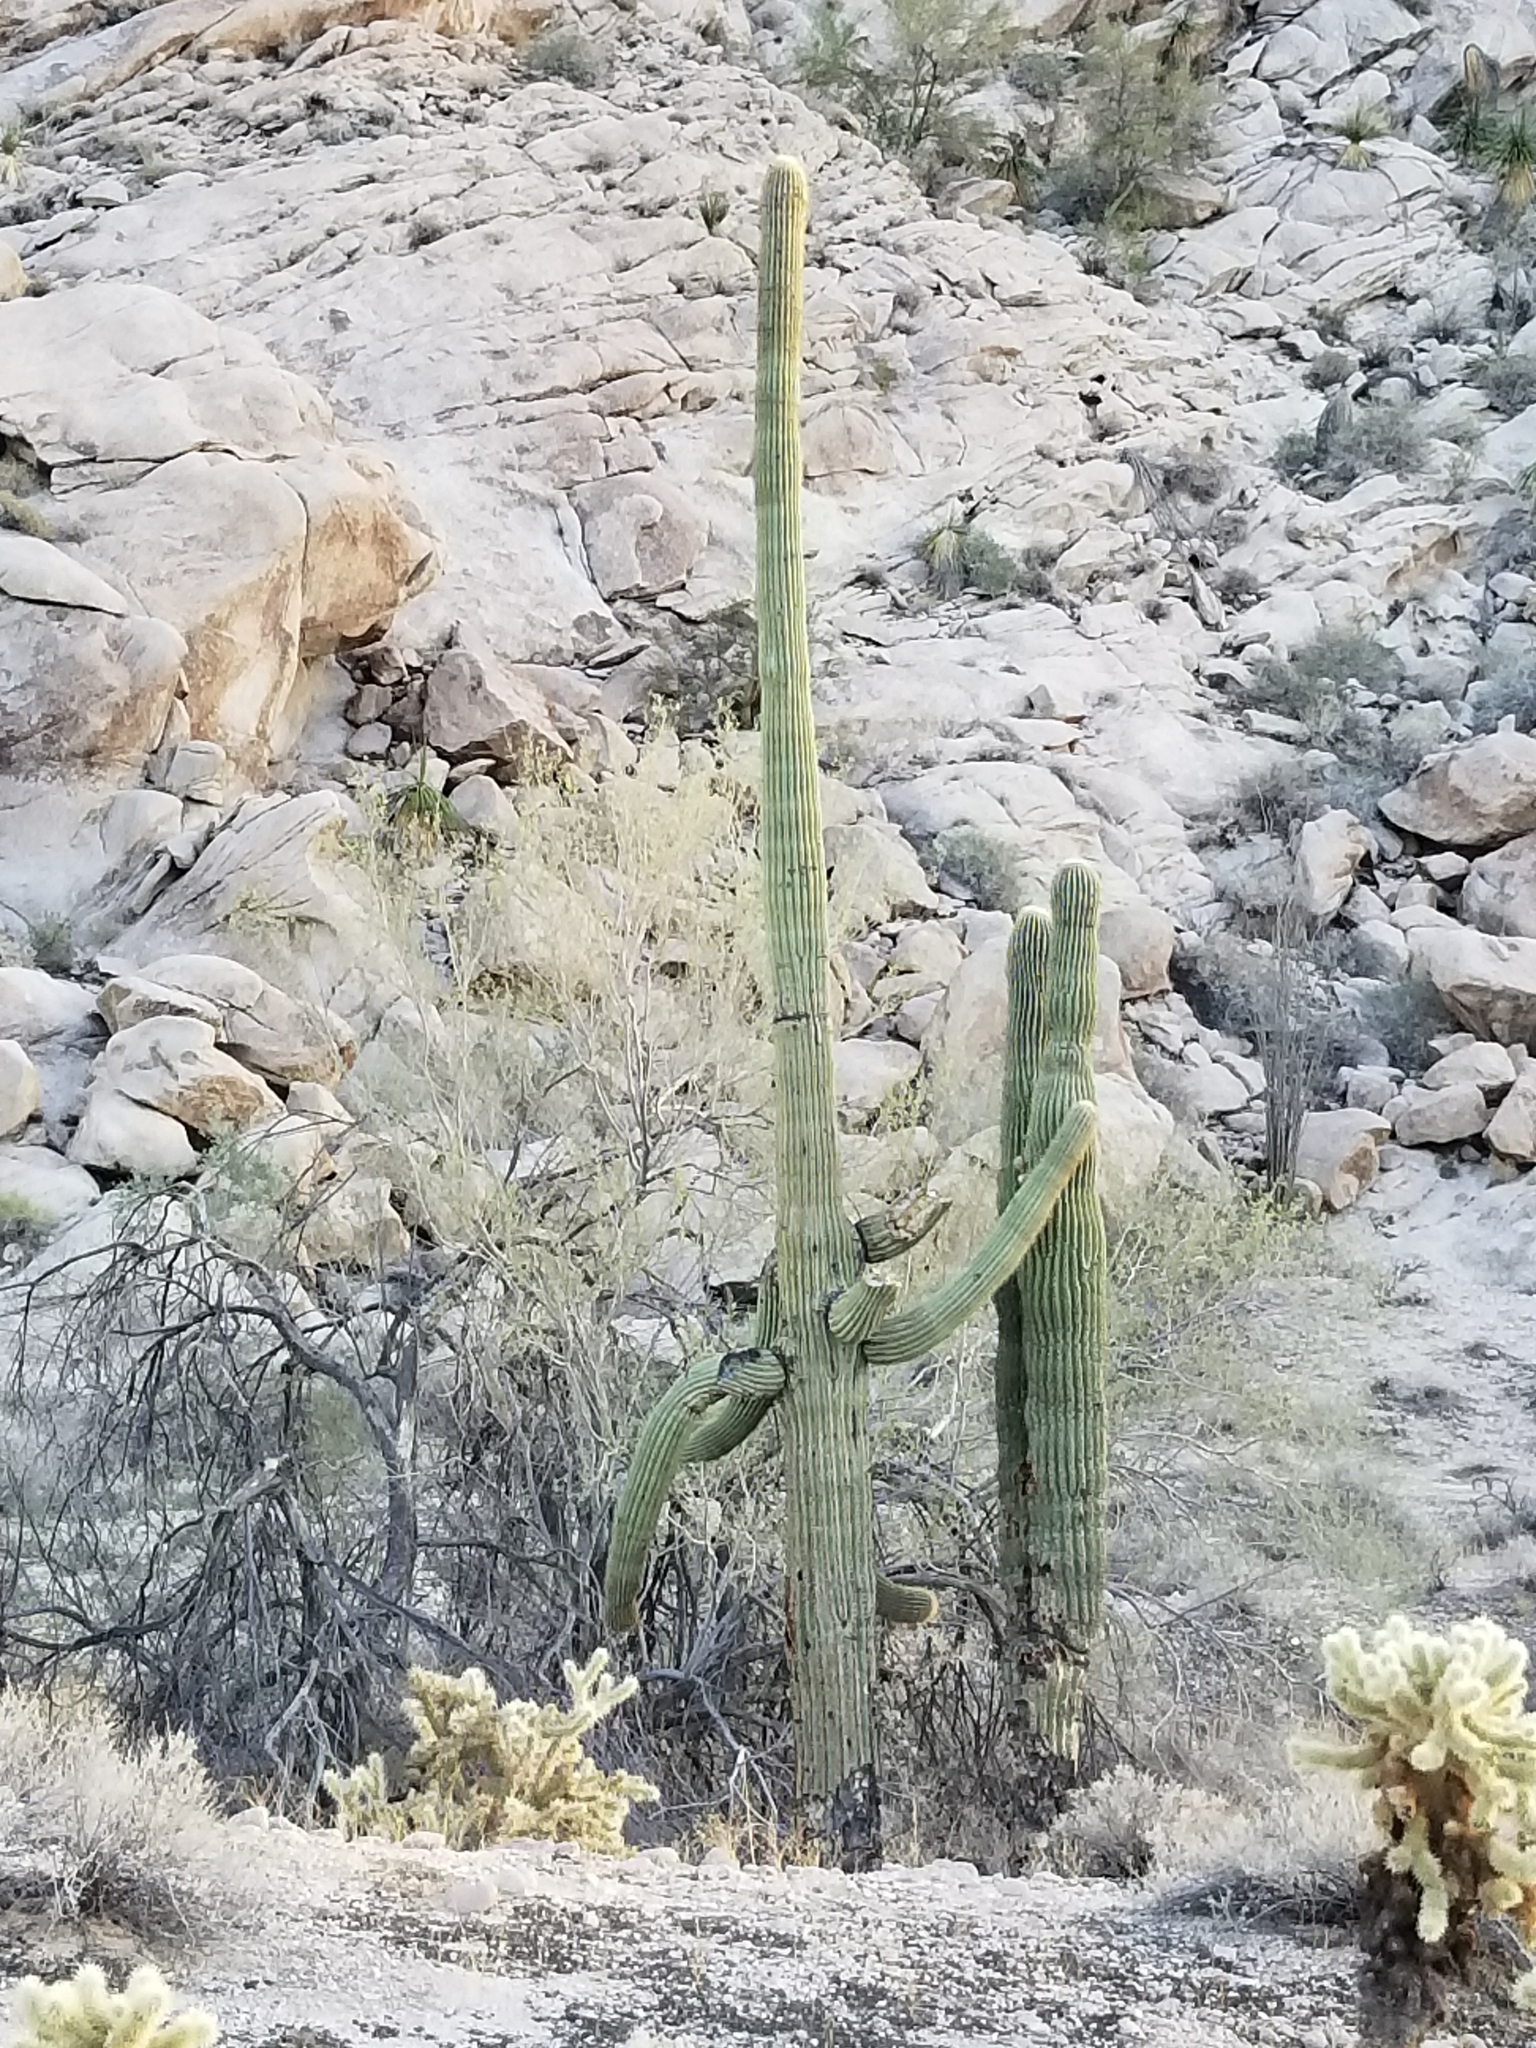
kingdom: Plantae
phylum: Tracheophyta
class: Magnoliopsida
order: Caryophyllales
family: Cactaceae
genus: Carnegiea
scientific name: Carnegiea gigantea
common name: Saguaro
